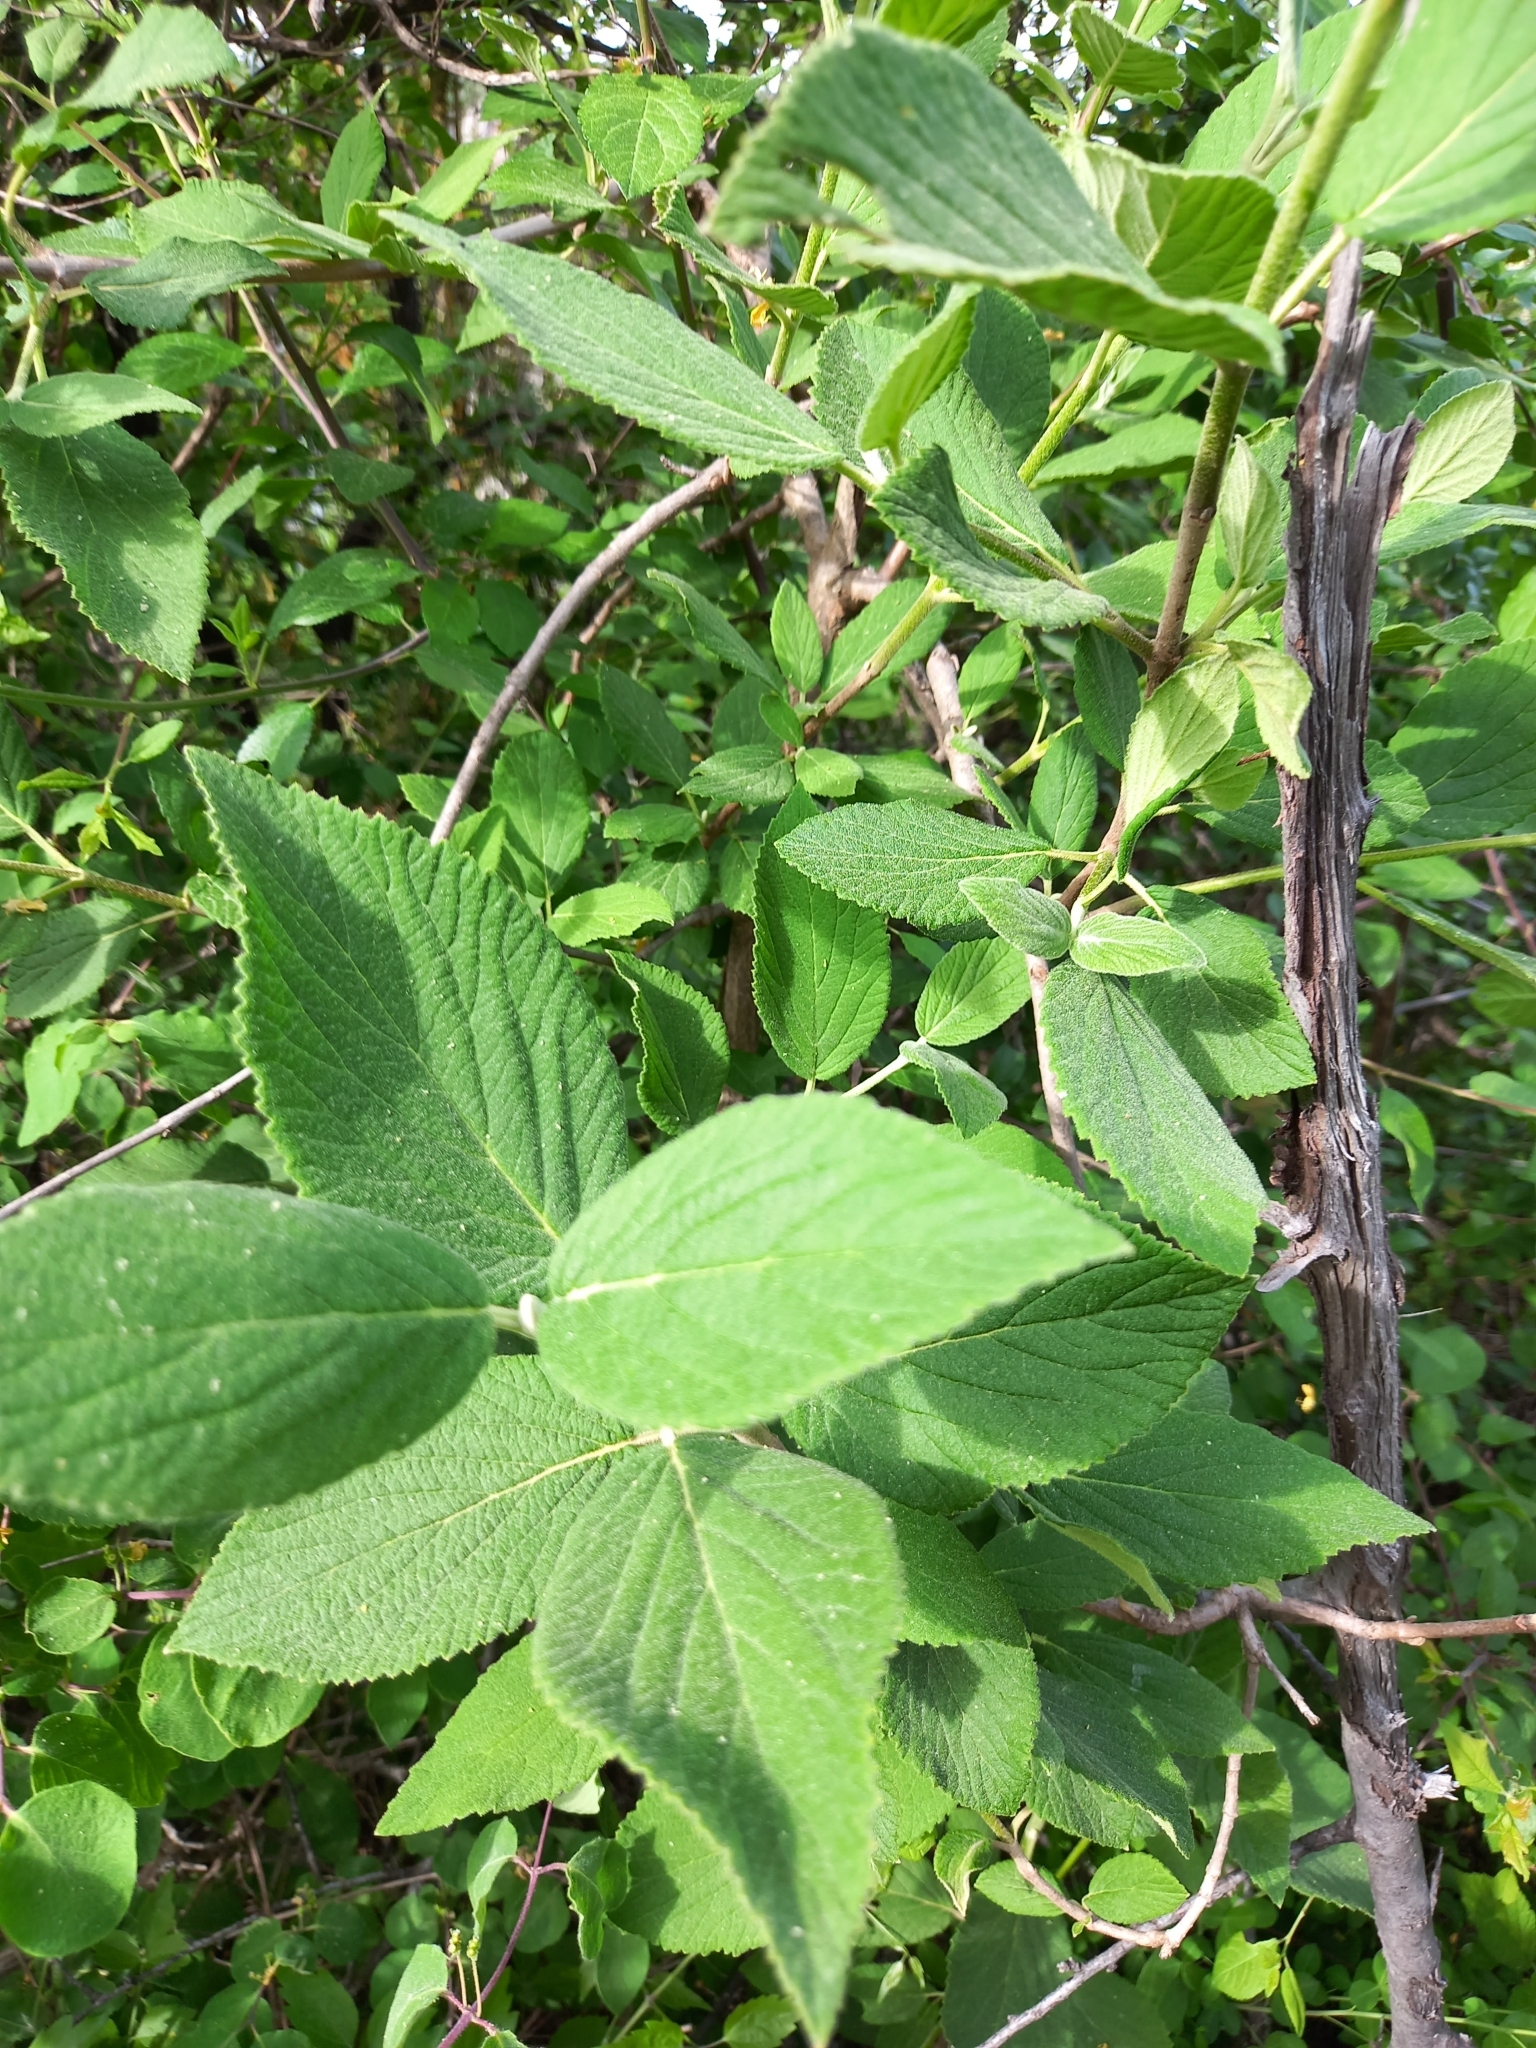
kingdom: Plantae
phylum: Tracheophyta
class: Magnoliopsida
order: Dipsacales
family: Viburnaceae
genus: Viburnum
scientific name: Viburnum lantana
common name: Wayfaring tree
